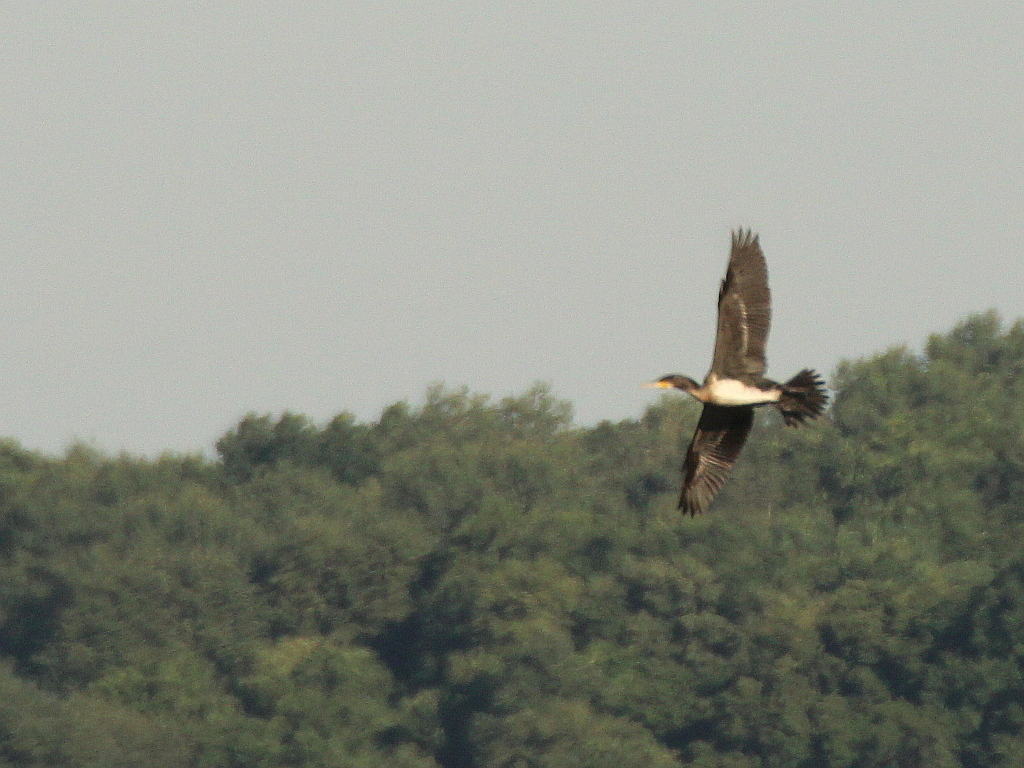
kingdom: Animalia
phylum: Chordata
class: Aves
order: Suliformes
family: Phalacrocoracidae
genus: Phalacrocorax
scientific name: Phalacrocorax carbo
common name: Great cormorant
